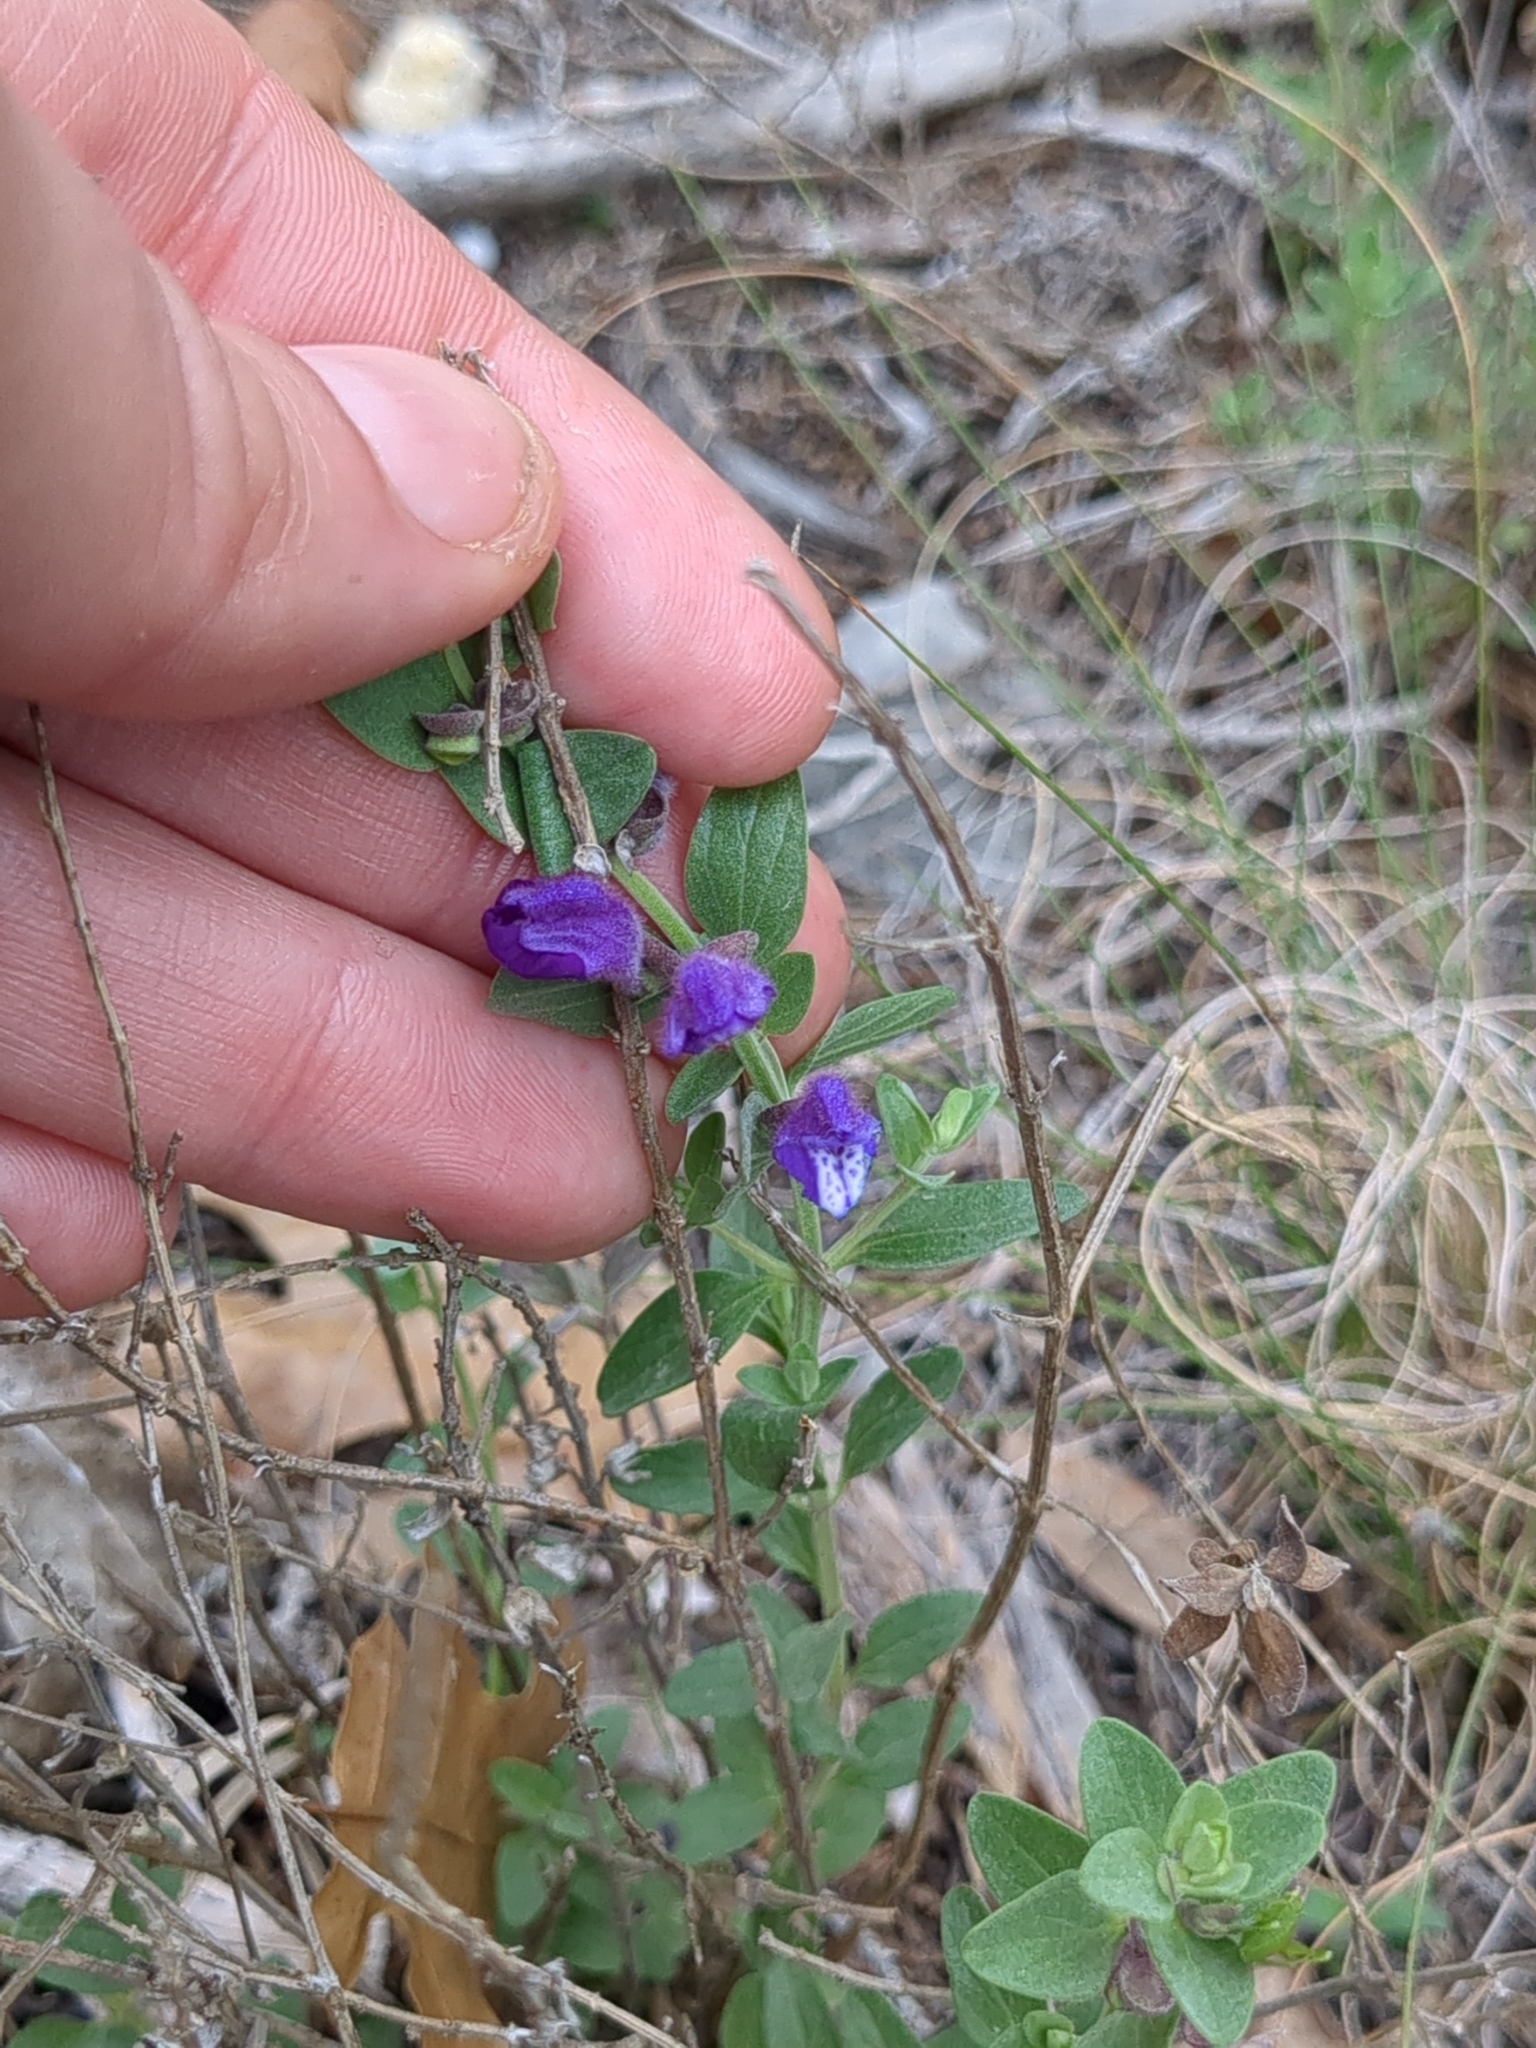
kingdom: Plantae
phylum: Tracheophyta
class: Magnoliopsida
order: Lamiales
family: Lamiaceae
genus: Scutellaria
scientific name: Scutellaria wrightii
